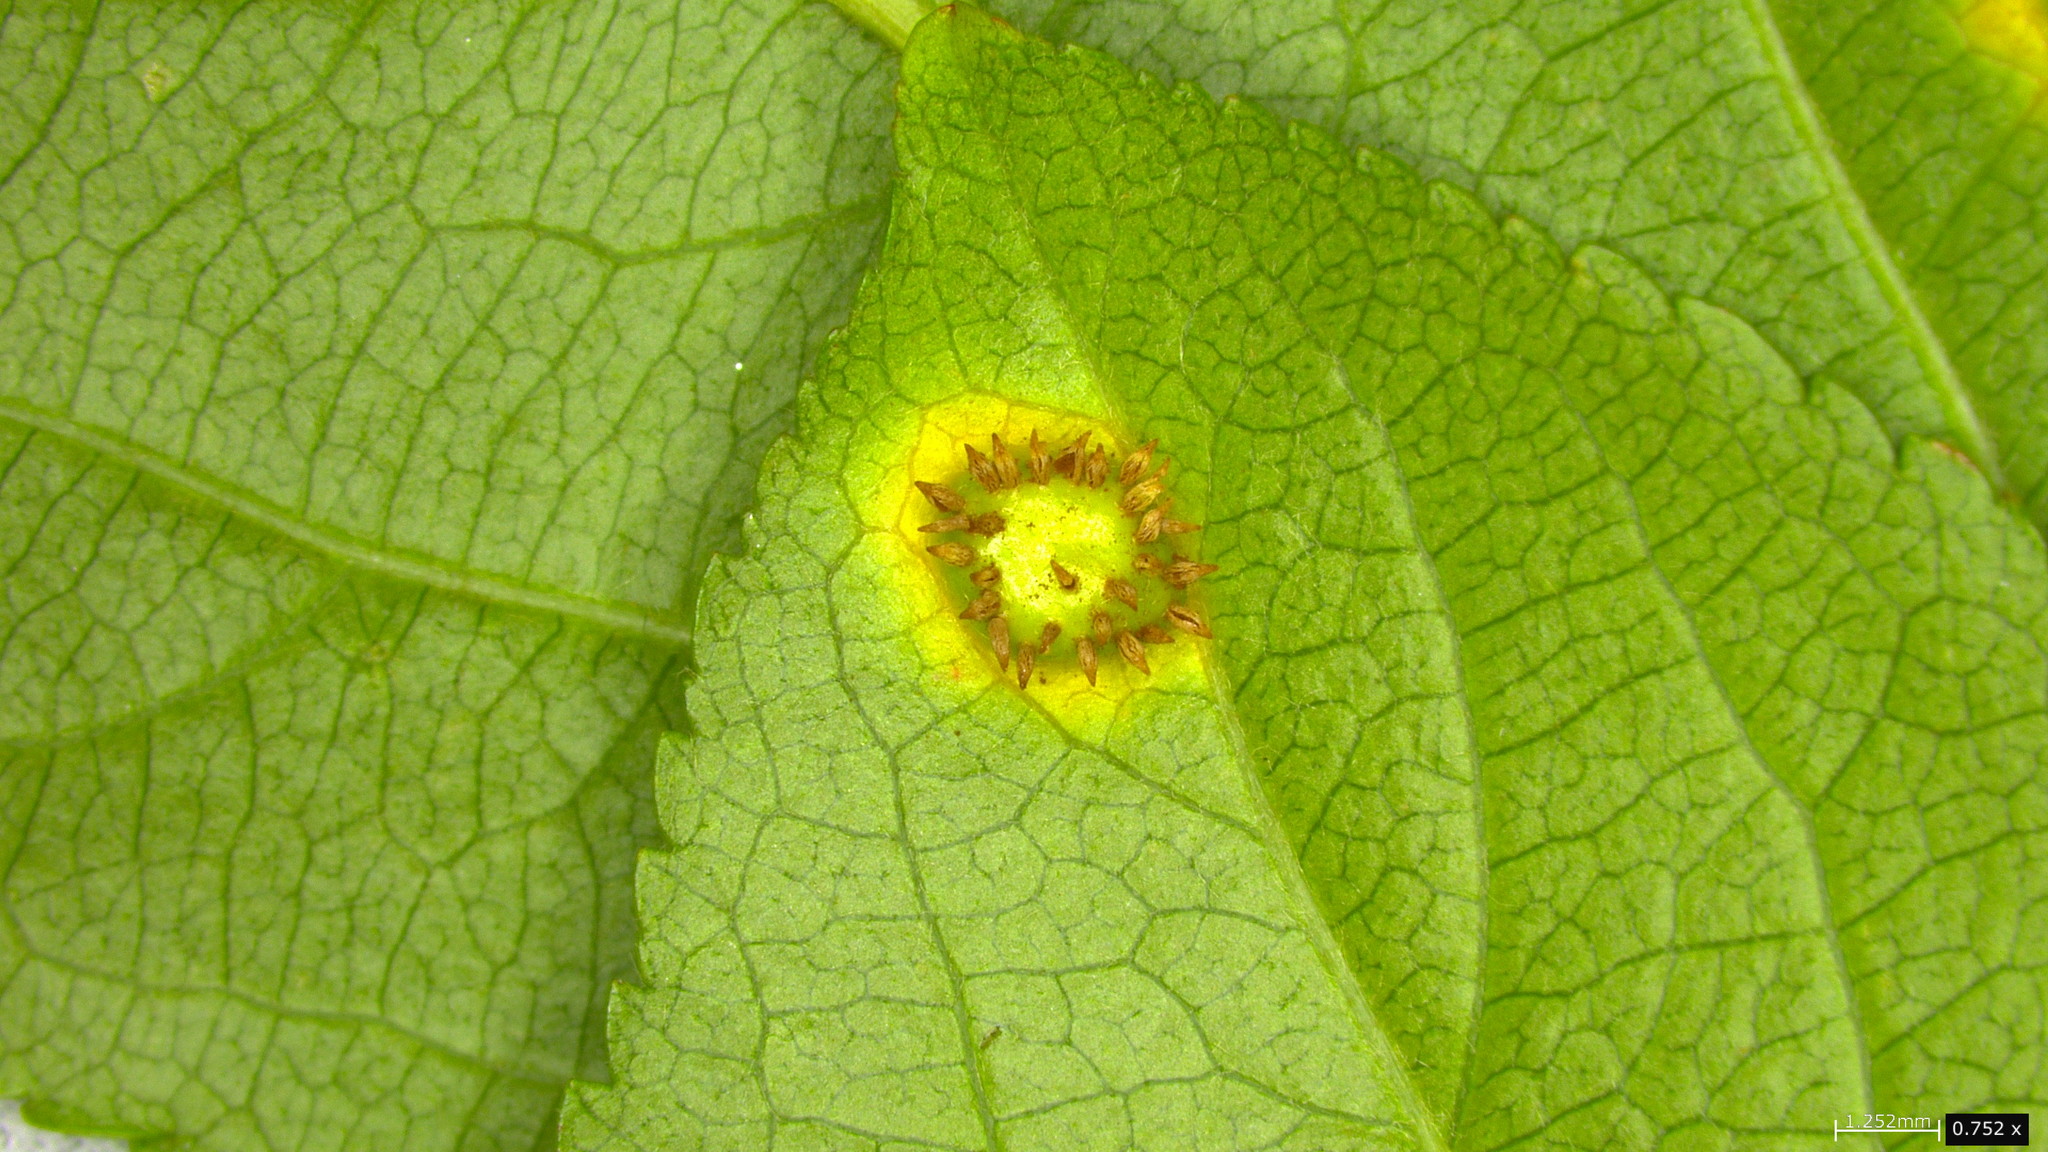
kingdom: Fungi
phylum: Basidiomycota
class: Pucciniomycetes
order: Pucciniales
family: Gymnosporangiaceae
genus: Gymnosporangium
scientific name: Gymnosporangium yamadae
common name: Japanese apple rust
